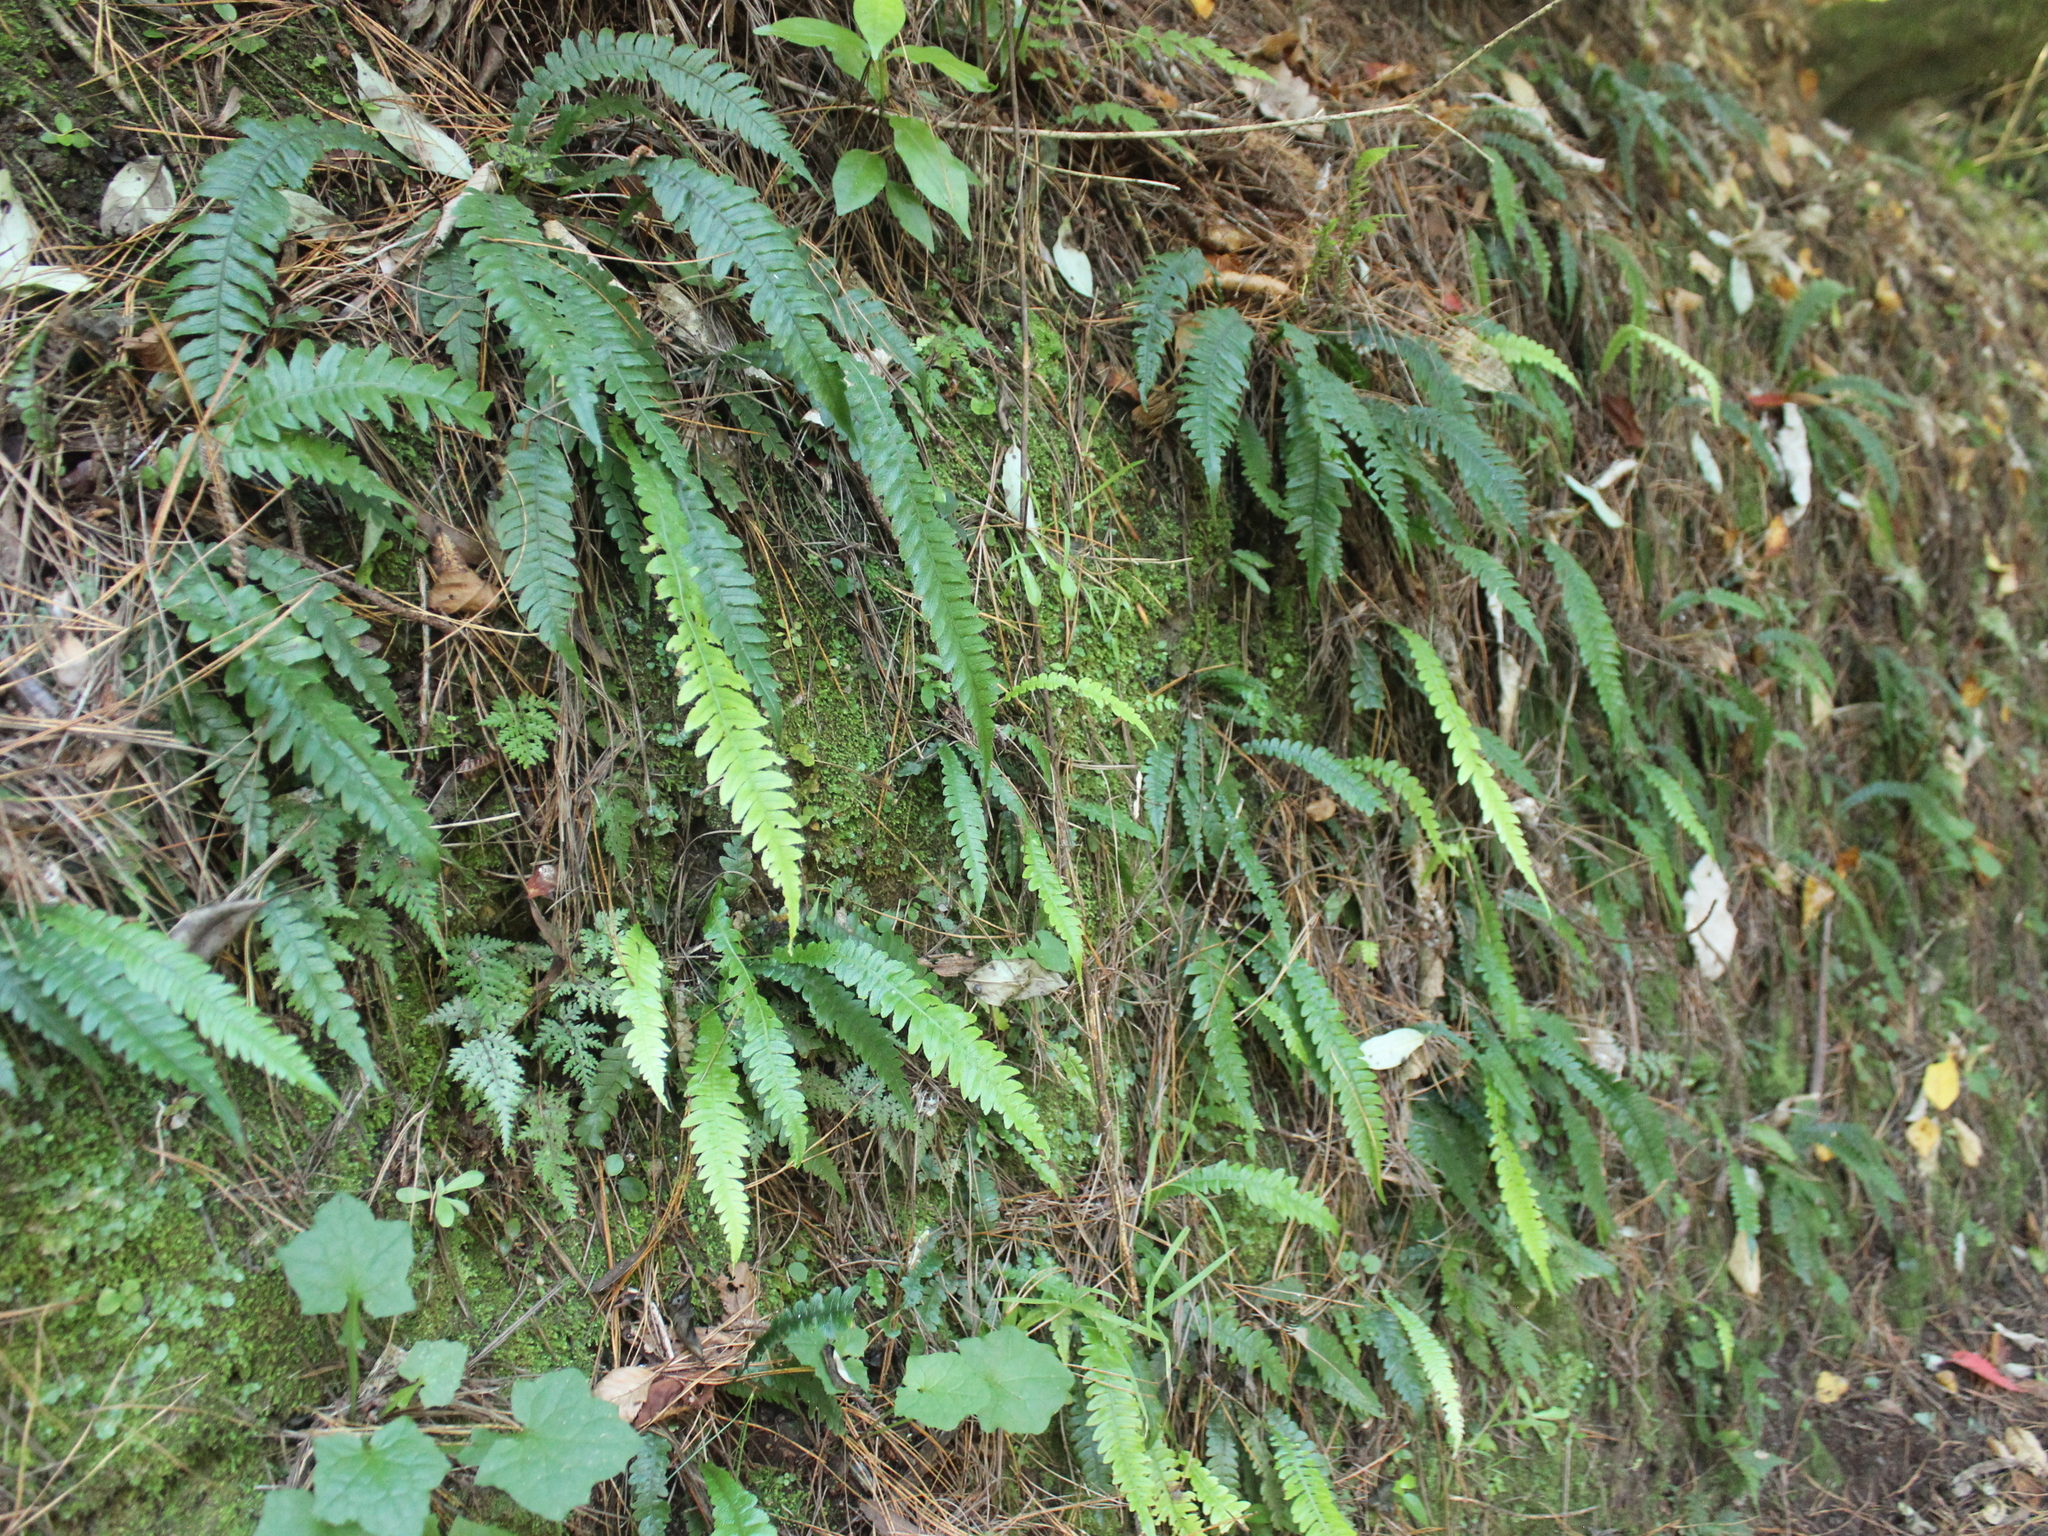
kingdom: Plantae
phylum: Tracheophyta
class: Polypodiopsida
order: Polypodiales
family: Blechnaceae
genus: Austroblechnum
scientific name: Austroblechnum lanceolatum
